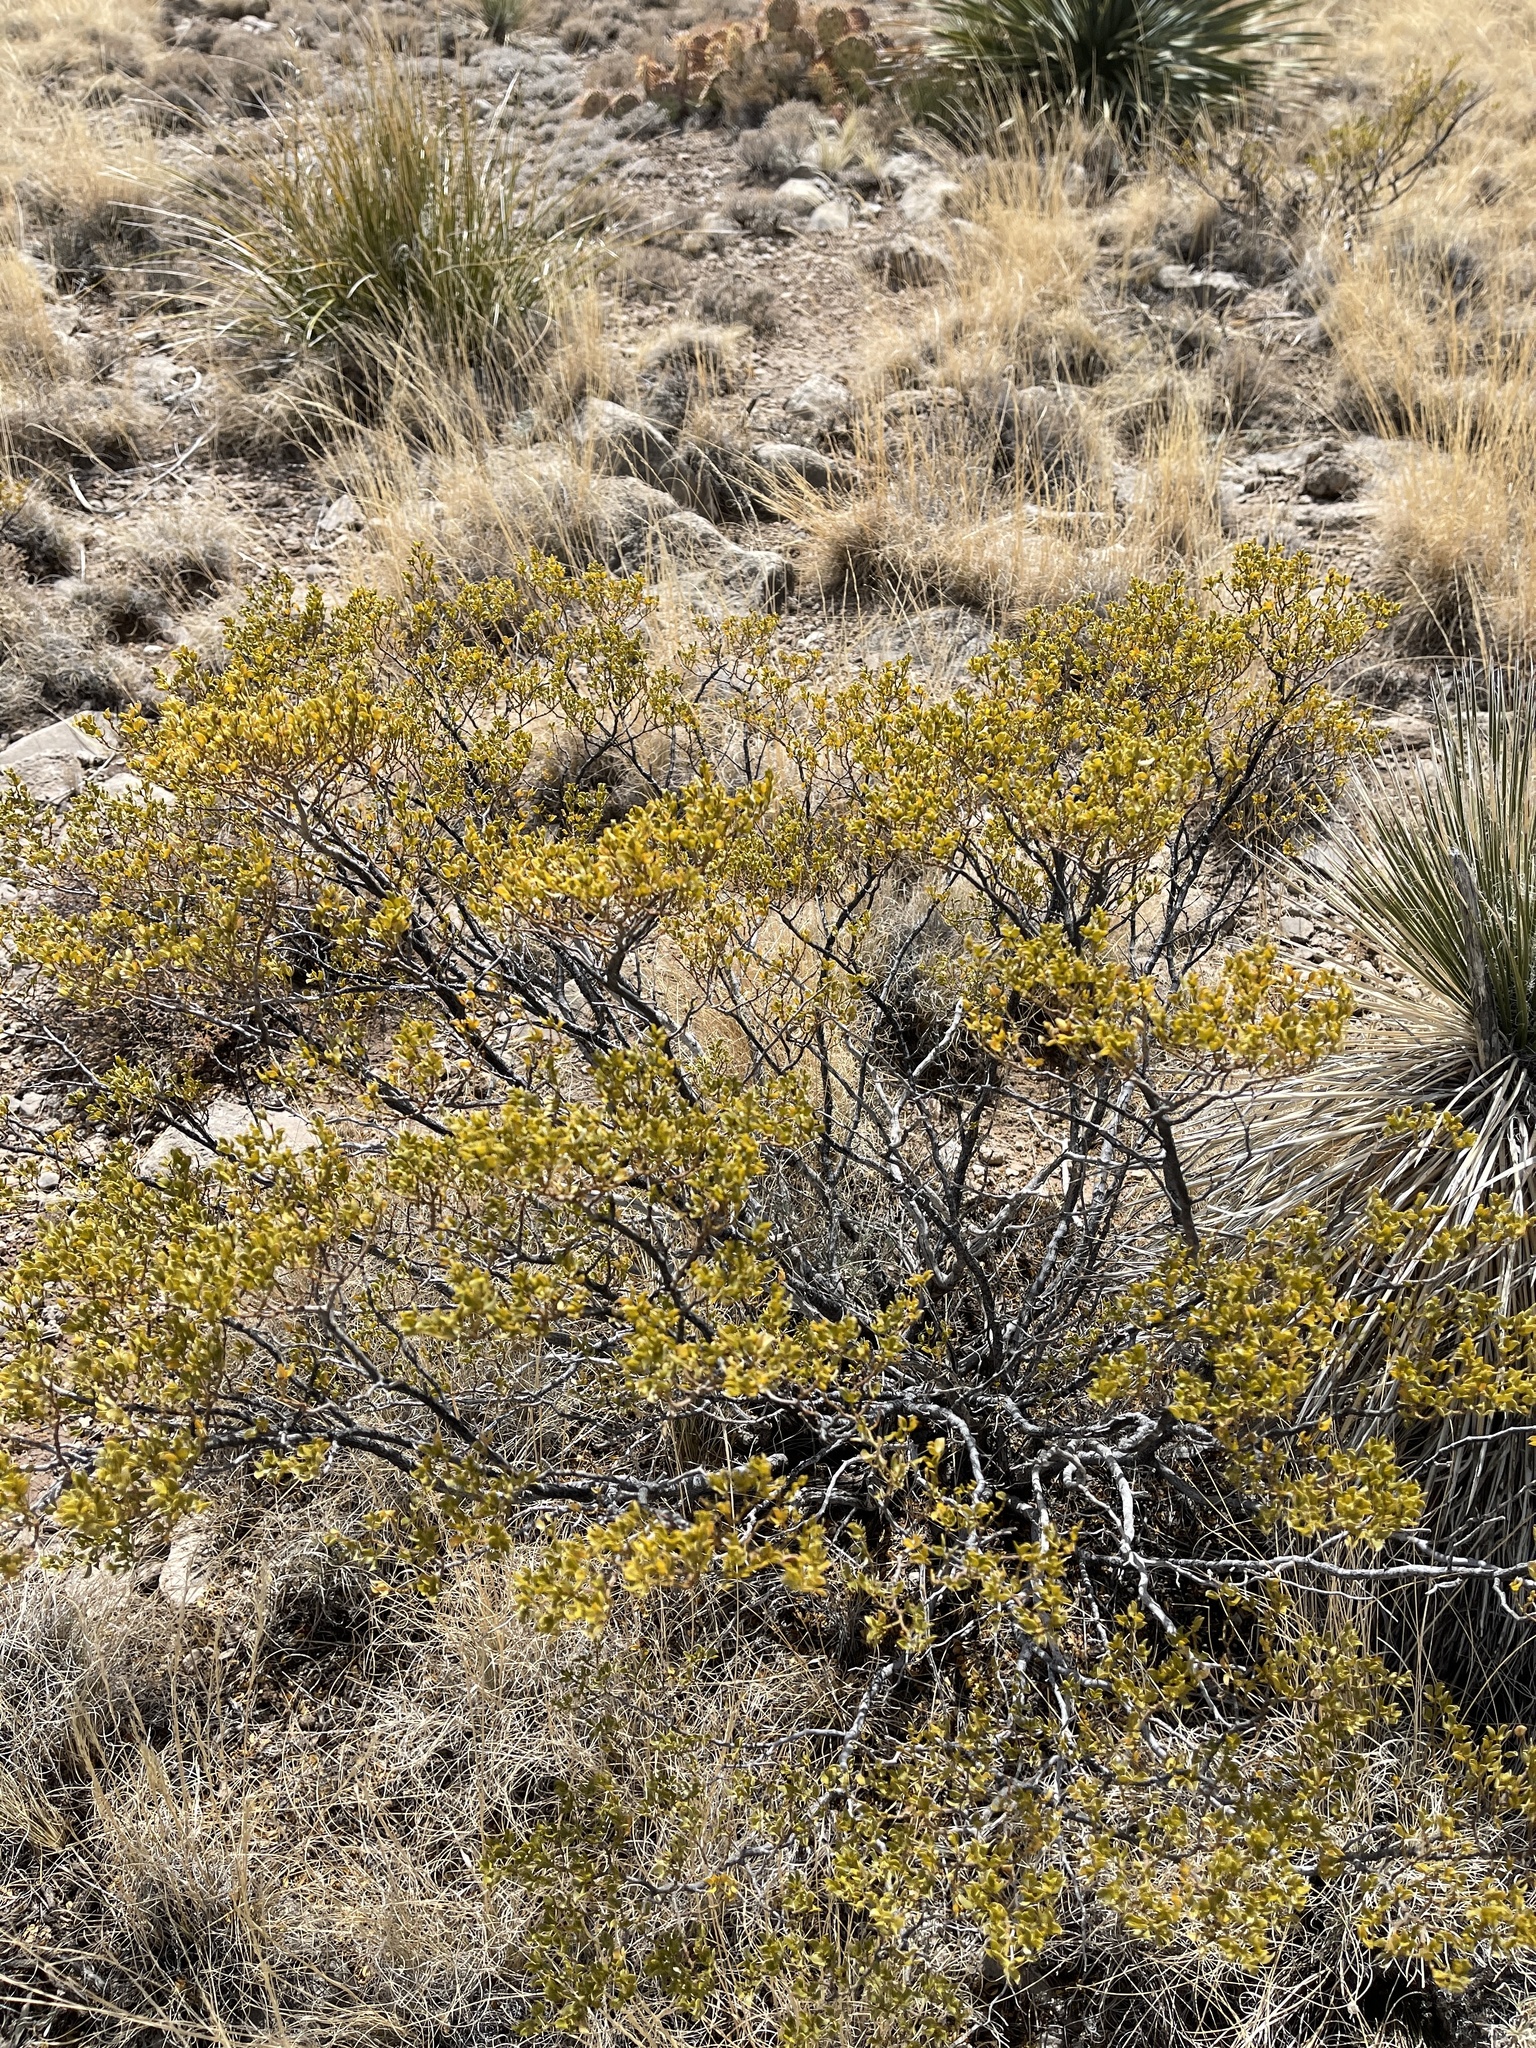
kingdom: Plantae
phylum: Tracheophyta
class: Magnoliopsida
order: Zygophyllales
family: Zygophyllaceae
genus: Larrea
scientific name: Larrea tridentata
